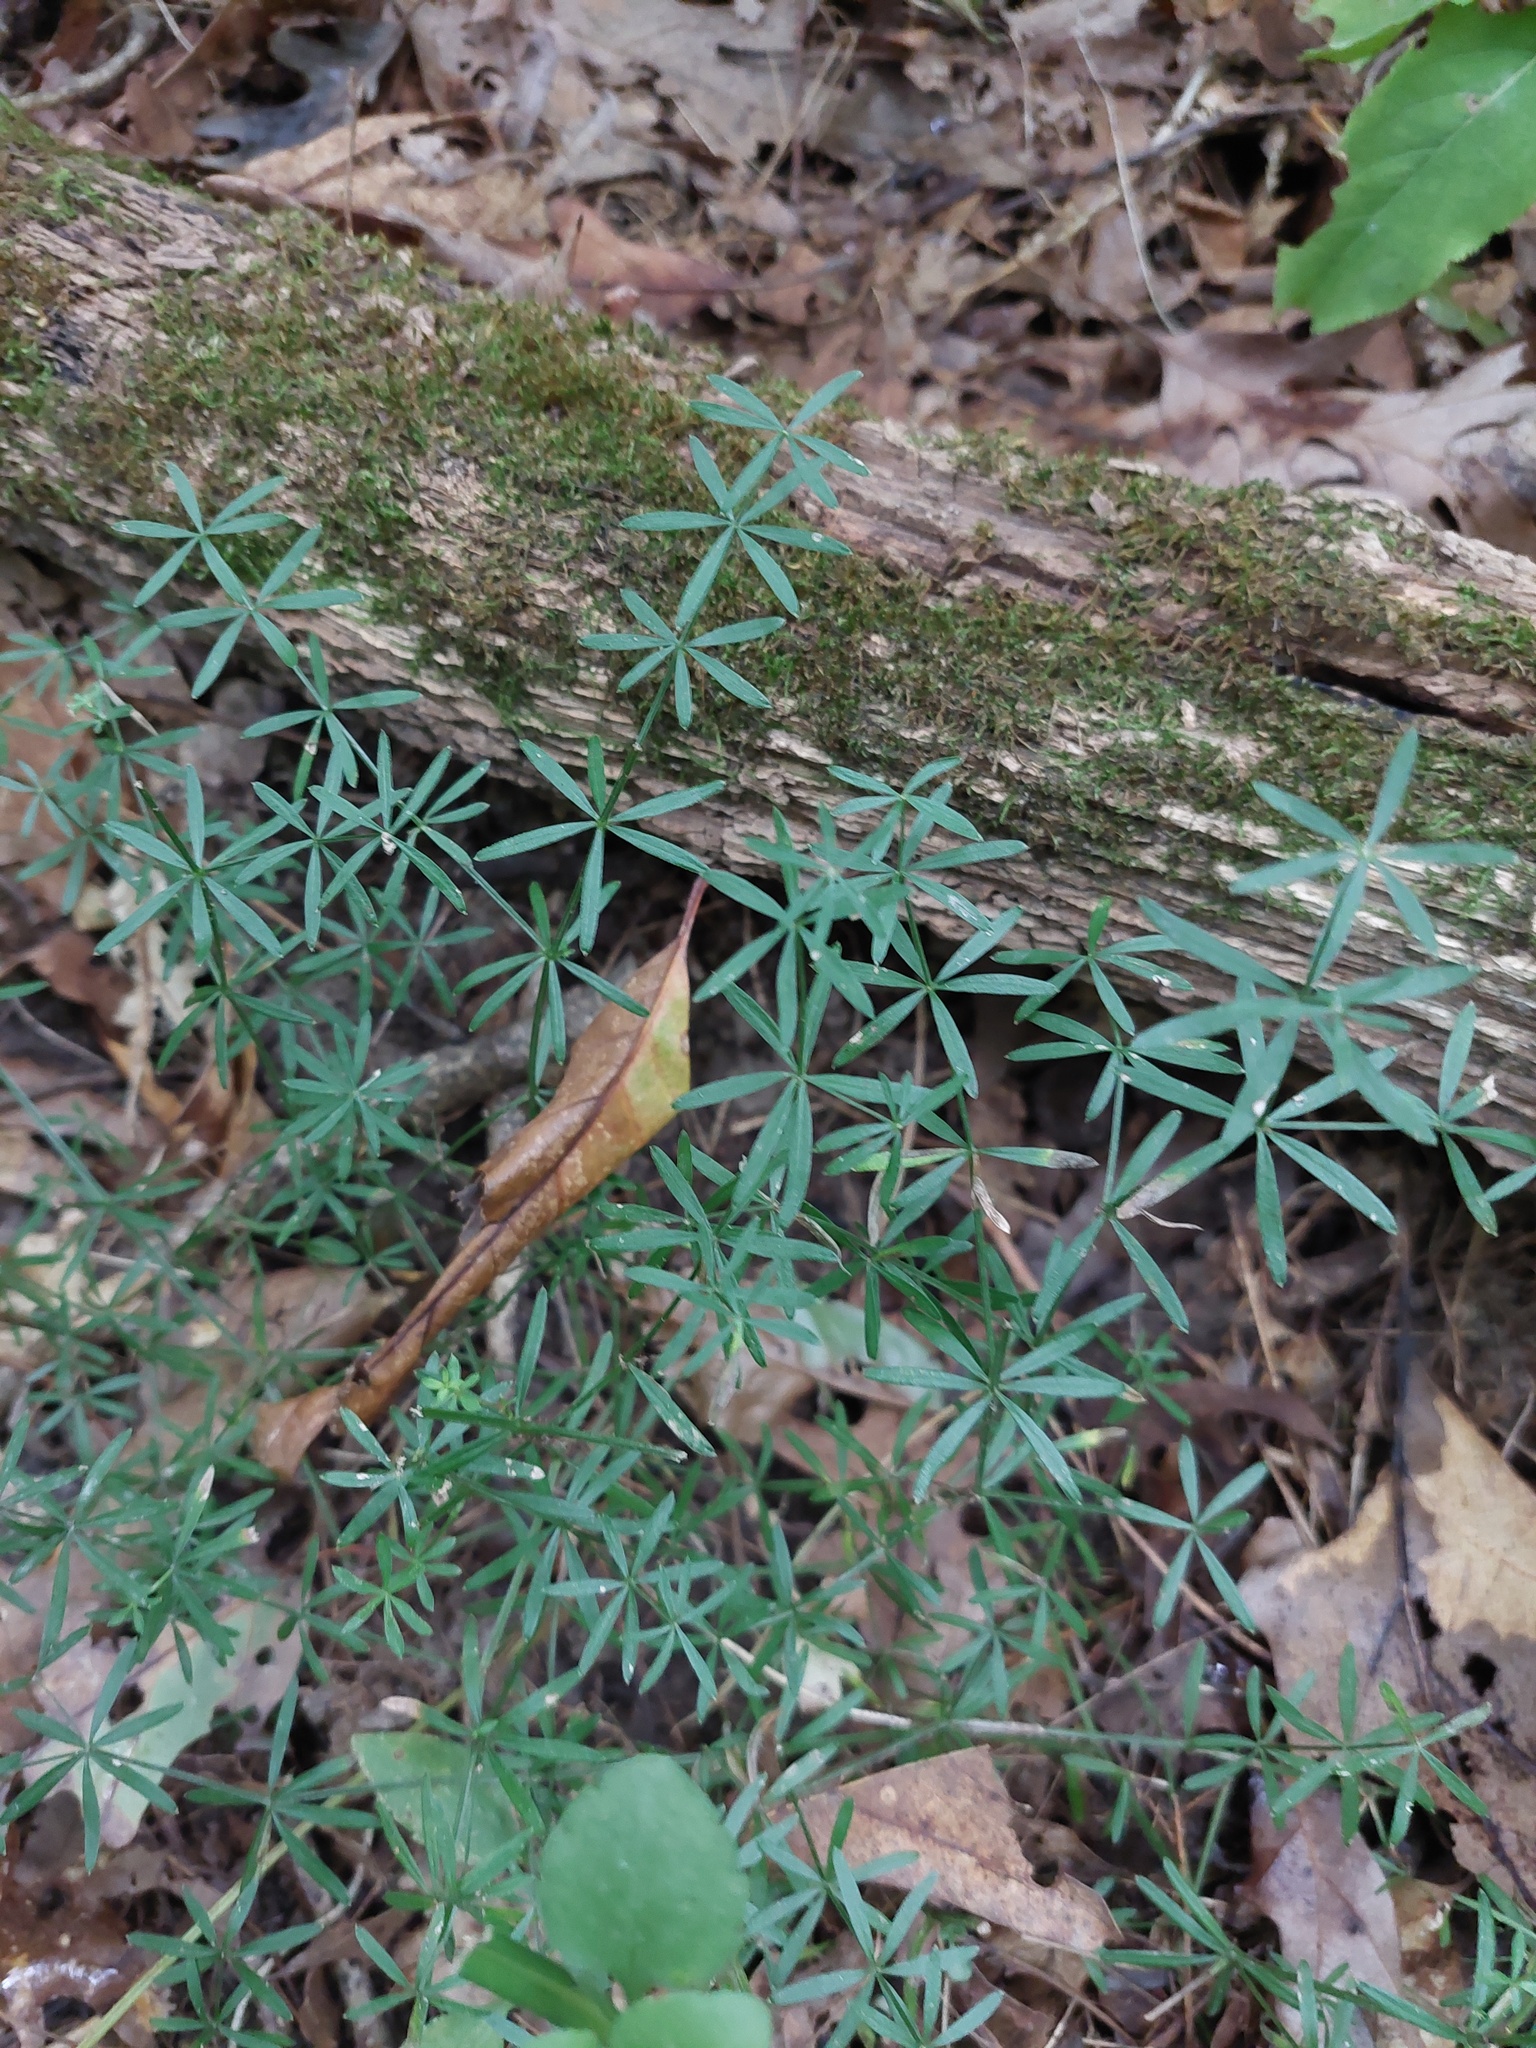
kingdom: Plantae
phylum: Tracheophyta
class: Magnoliopsida
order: Gentianales
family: Rubiaceae
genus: Galium
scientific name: Galium concinnum
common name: Shining bedstraw
